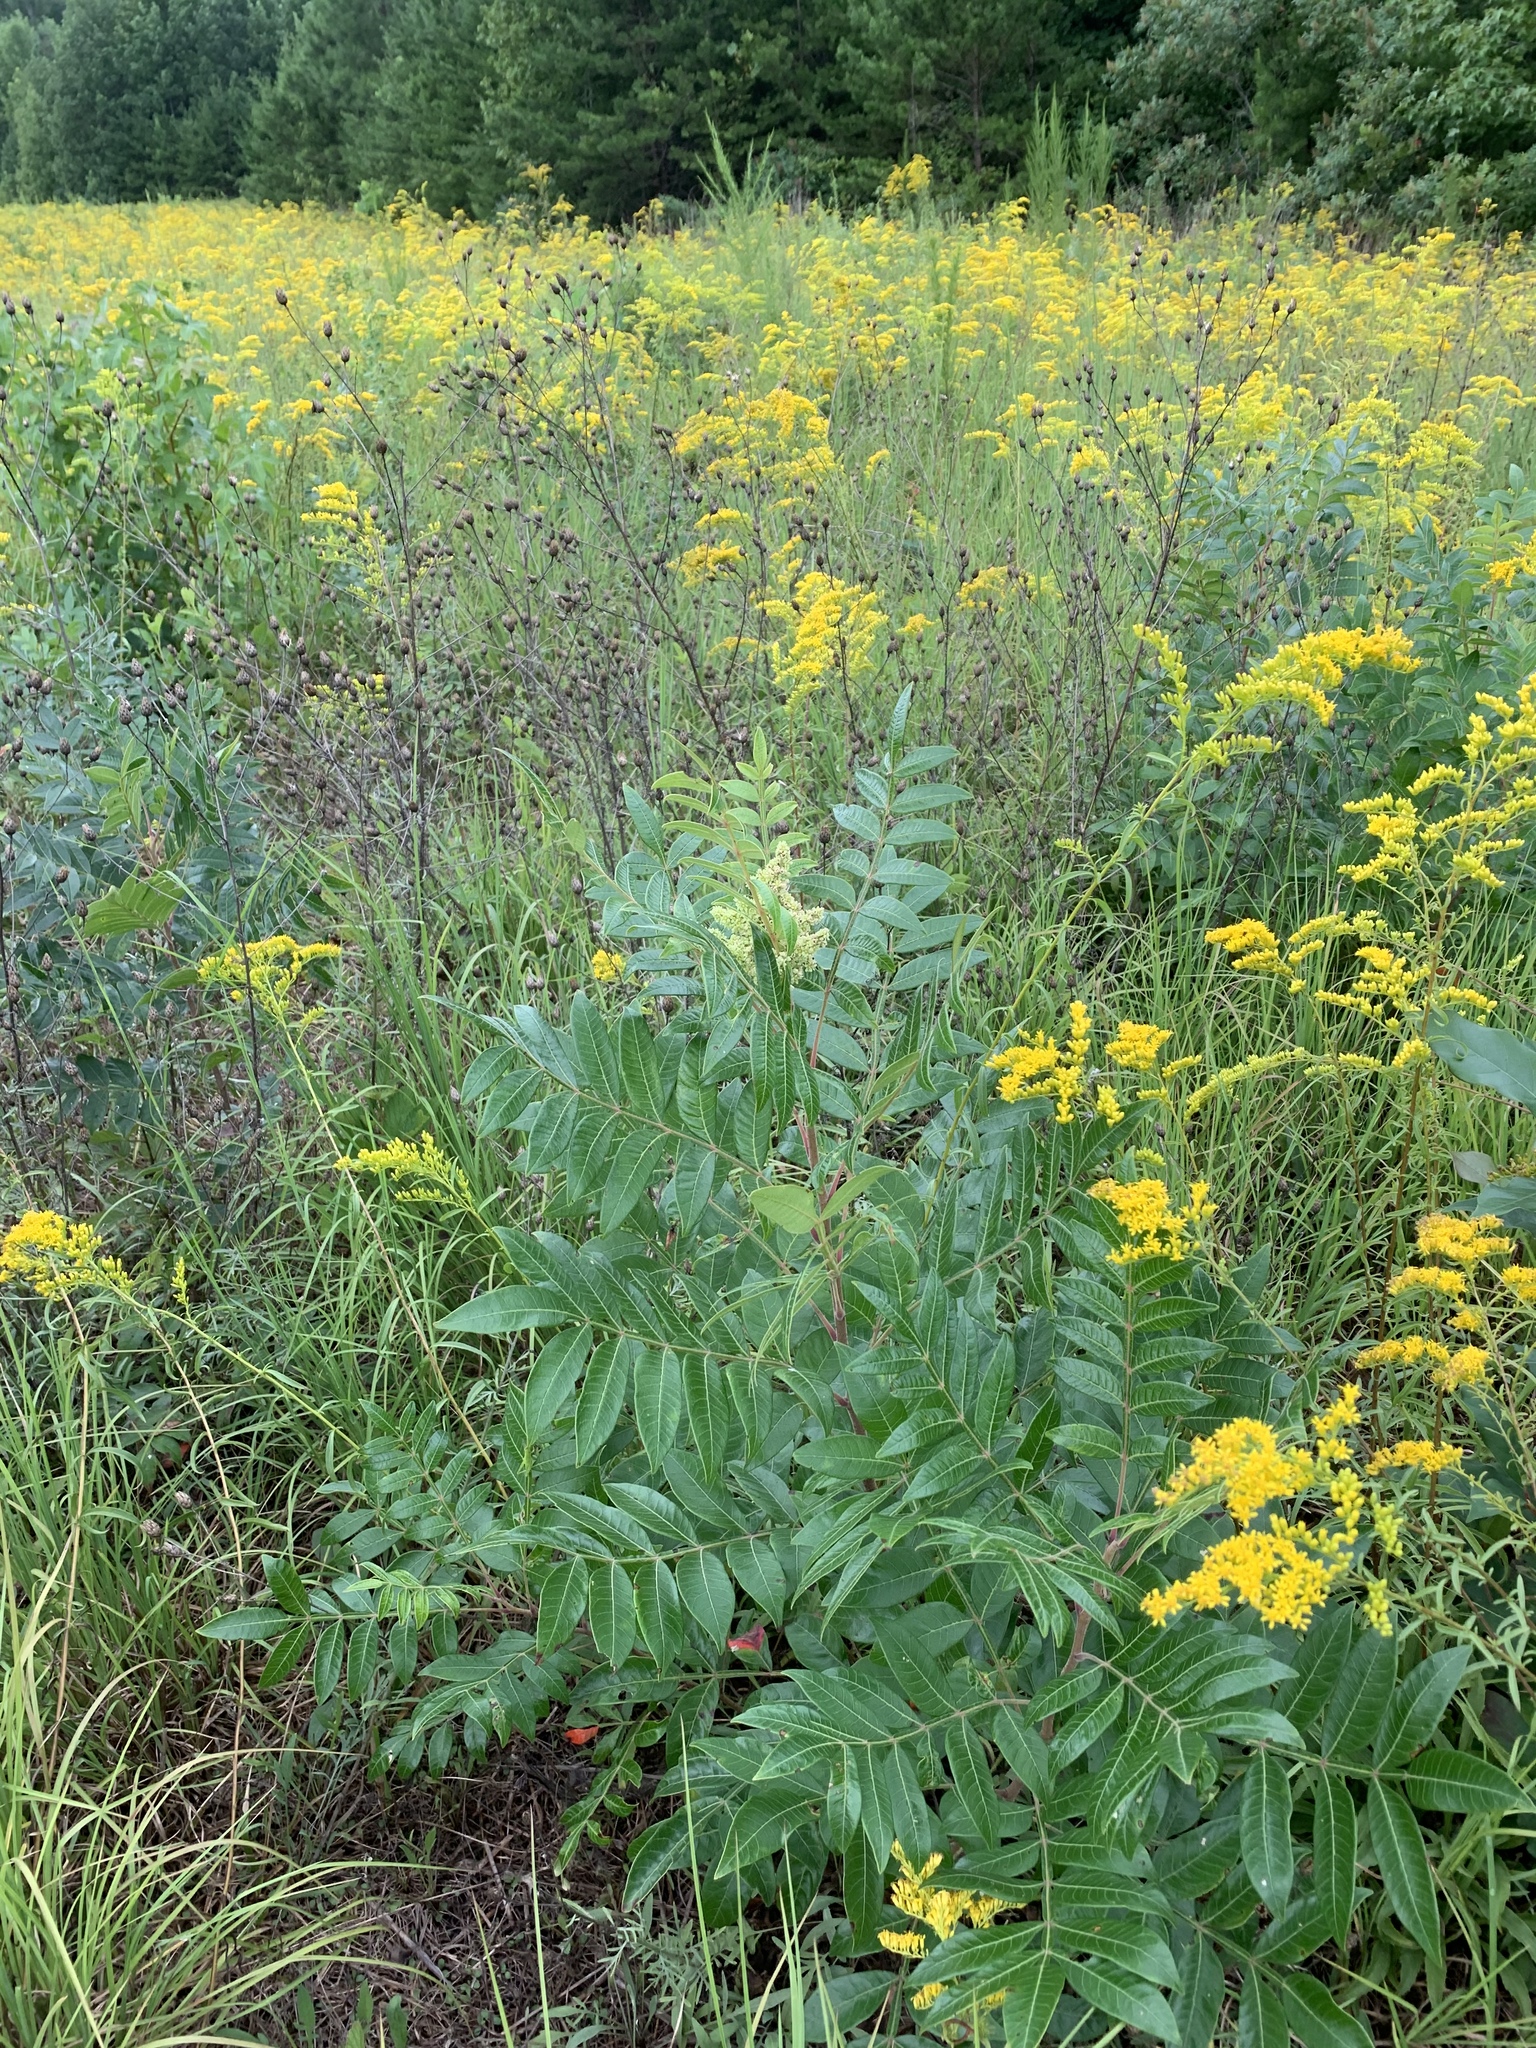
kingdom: Plantae
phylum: Tracheophyta
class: Magnoliopsida
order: Sapindales
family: Anacardiaceae
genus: Rhus
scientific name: Rhus copallina
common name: Shining sumac
